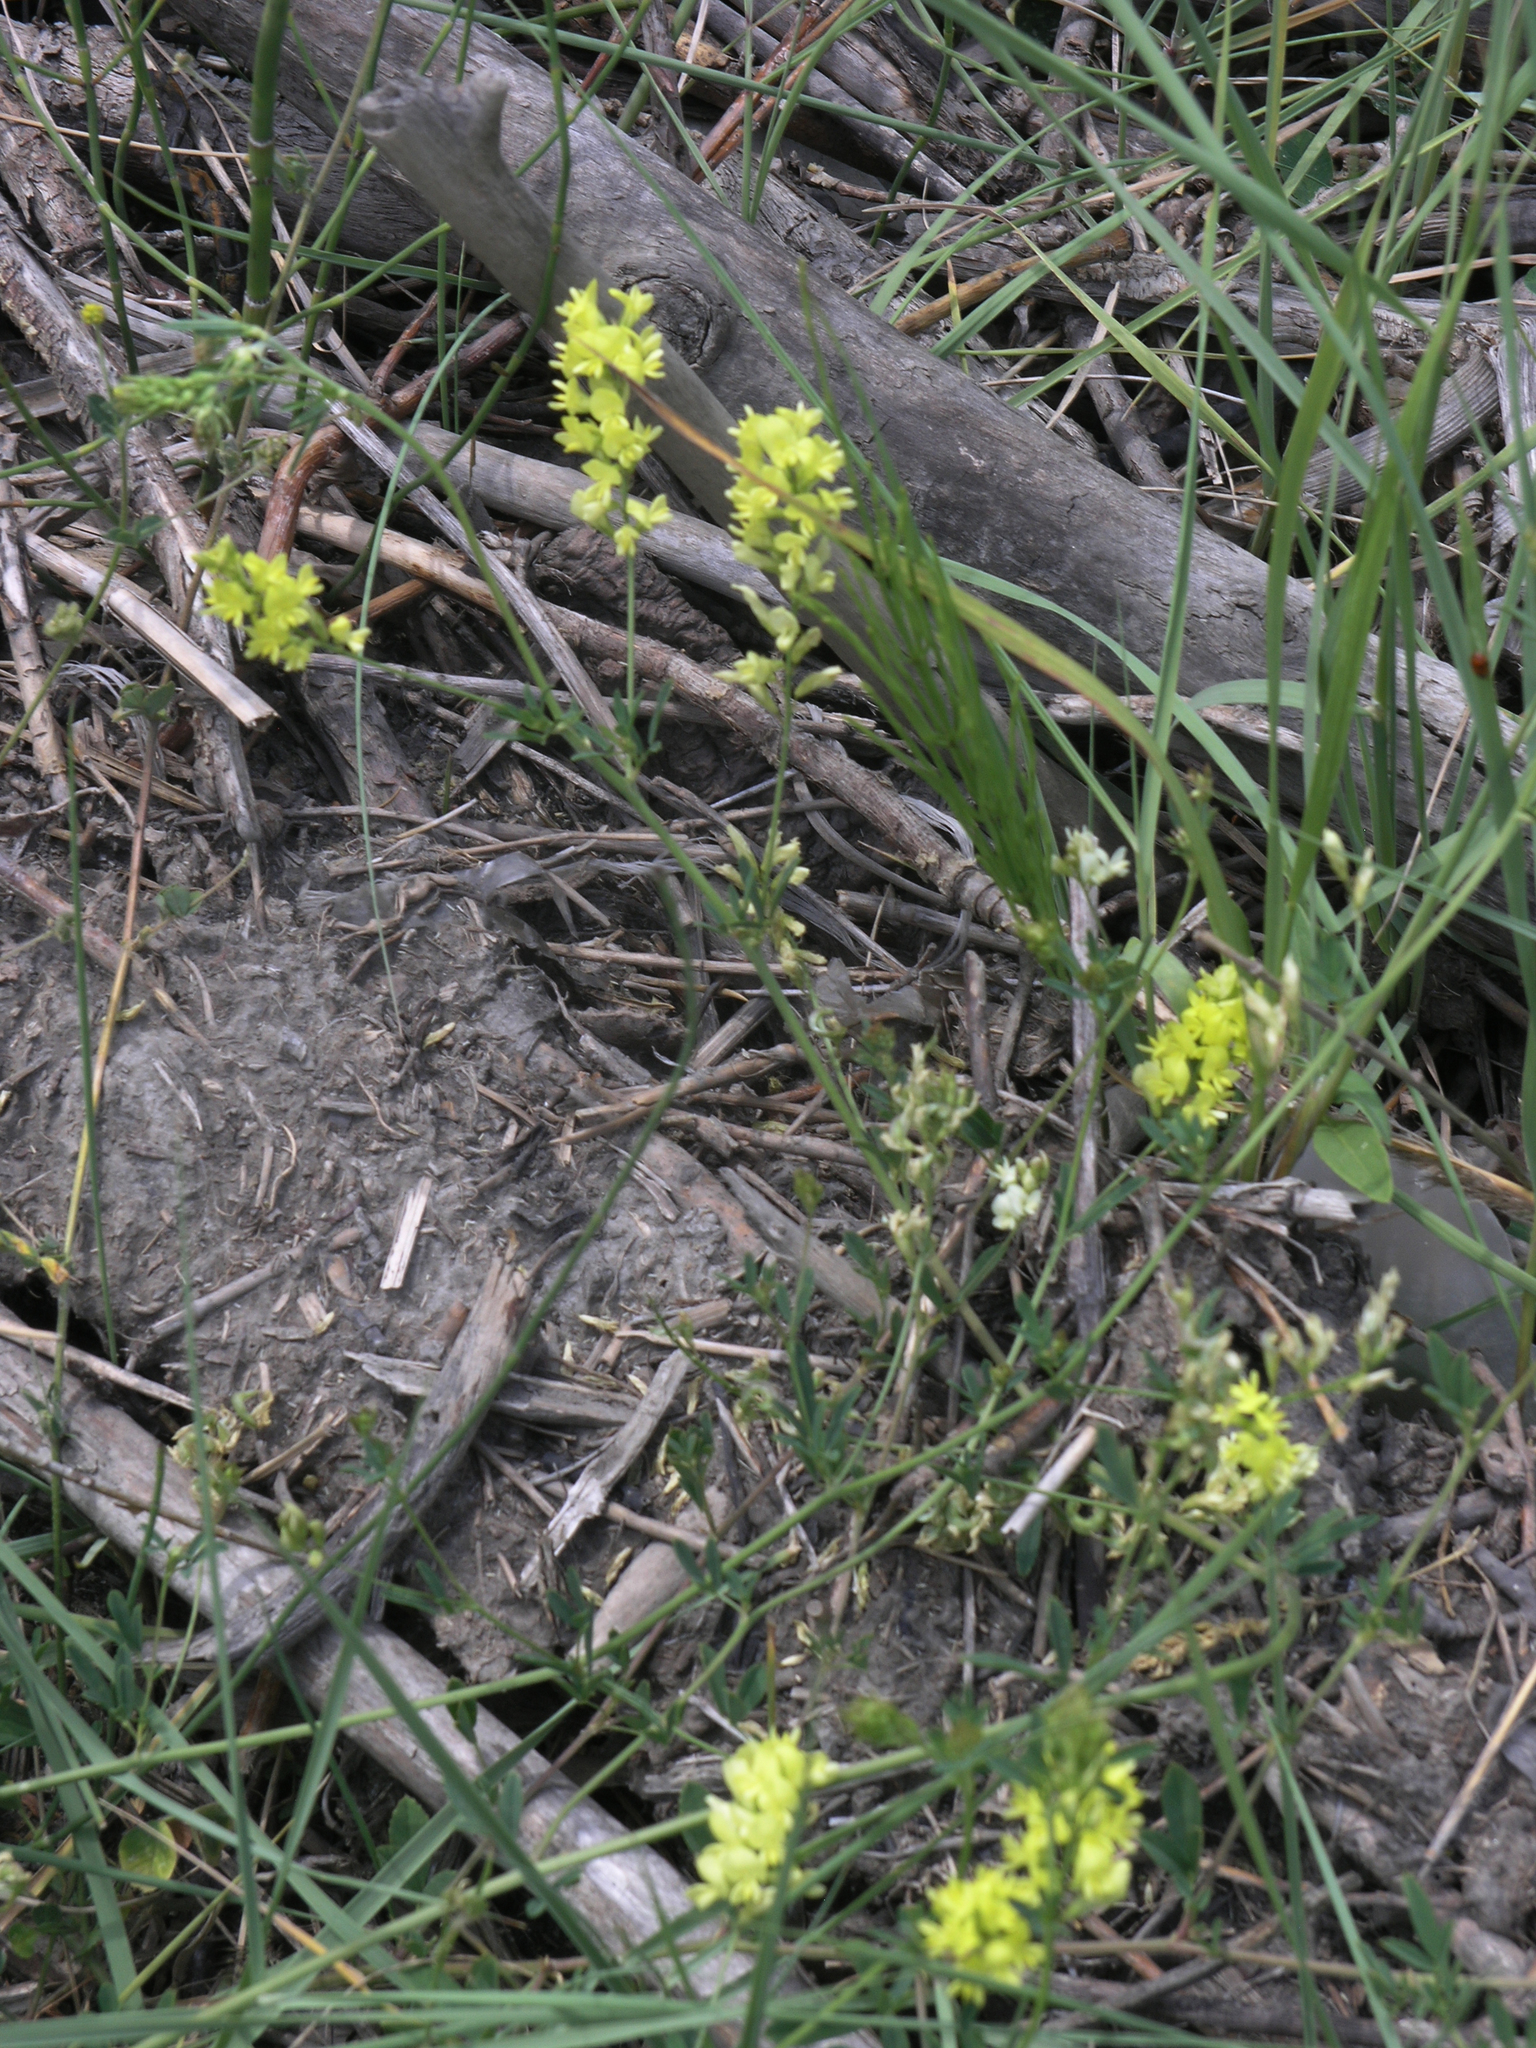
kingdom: Plantae
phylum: Tracheophyta
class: Magnoliopsida
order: Fabales
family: Fabaceae
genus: Melilotus
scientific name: Melilotus officinalis
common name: Sweetclover
